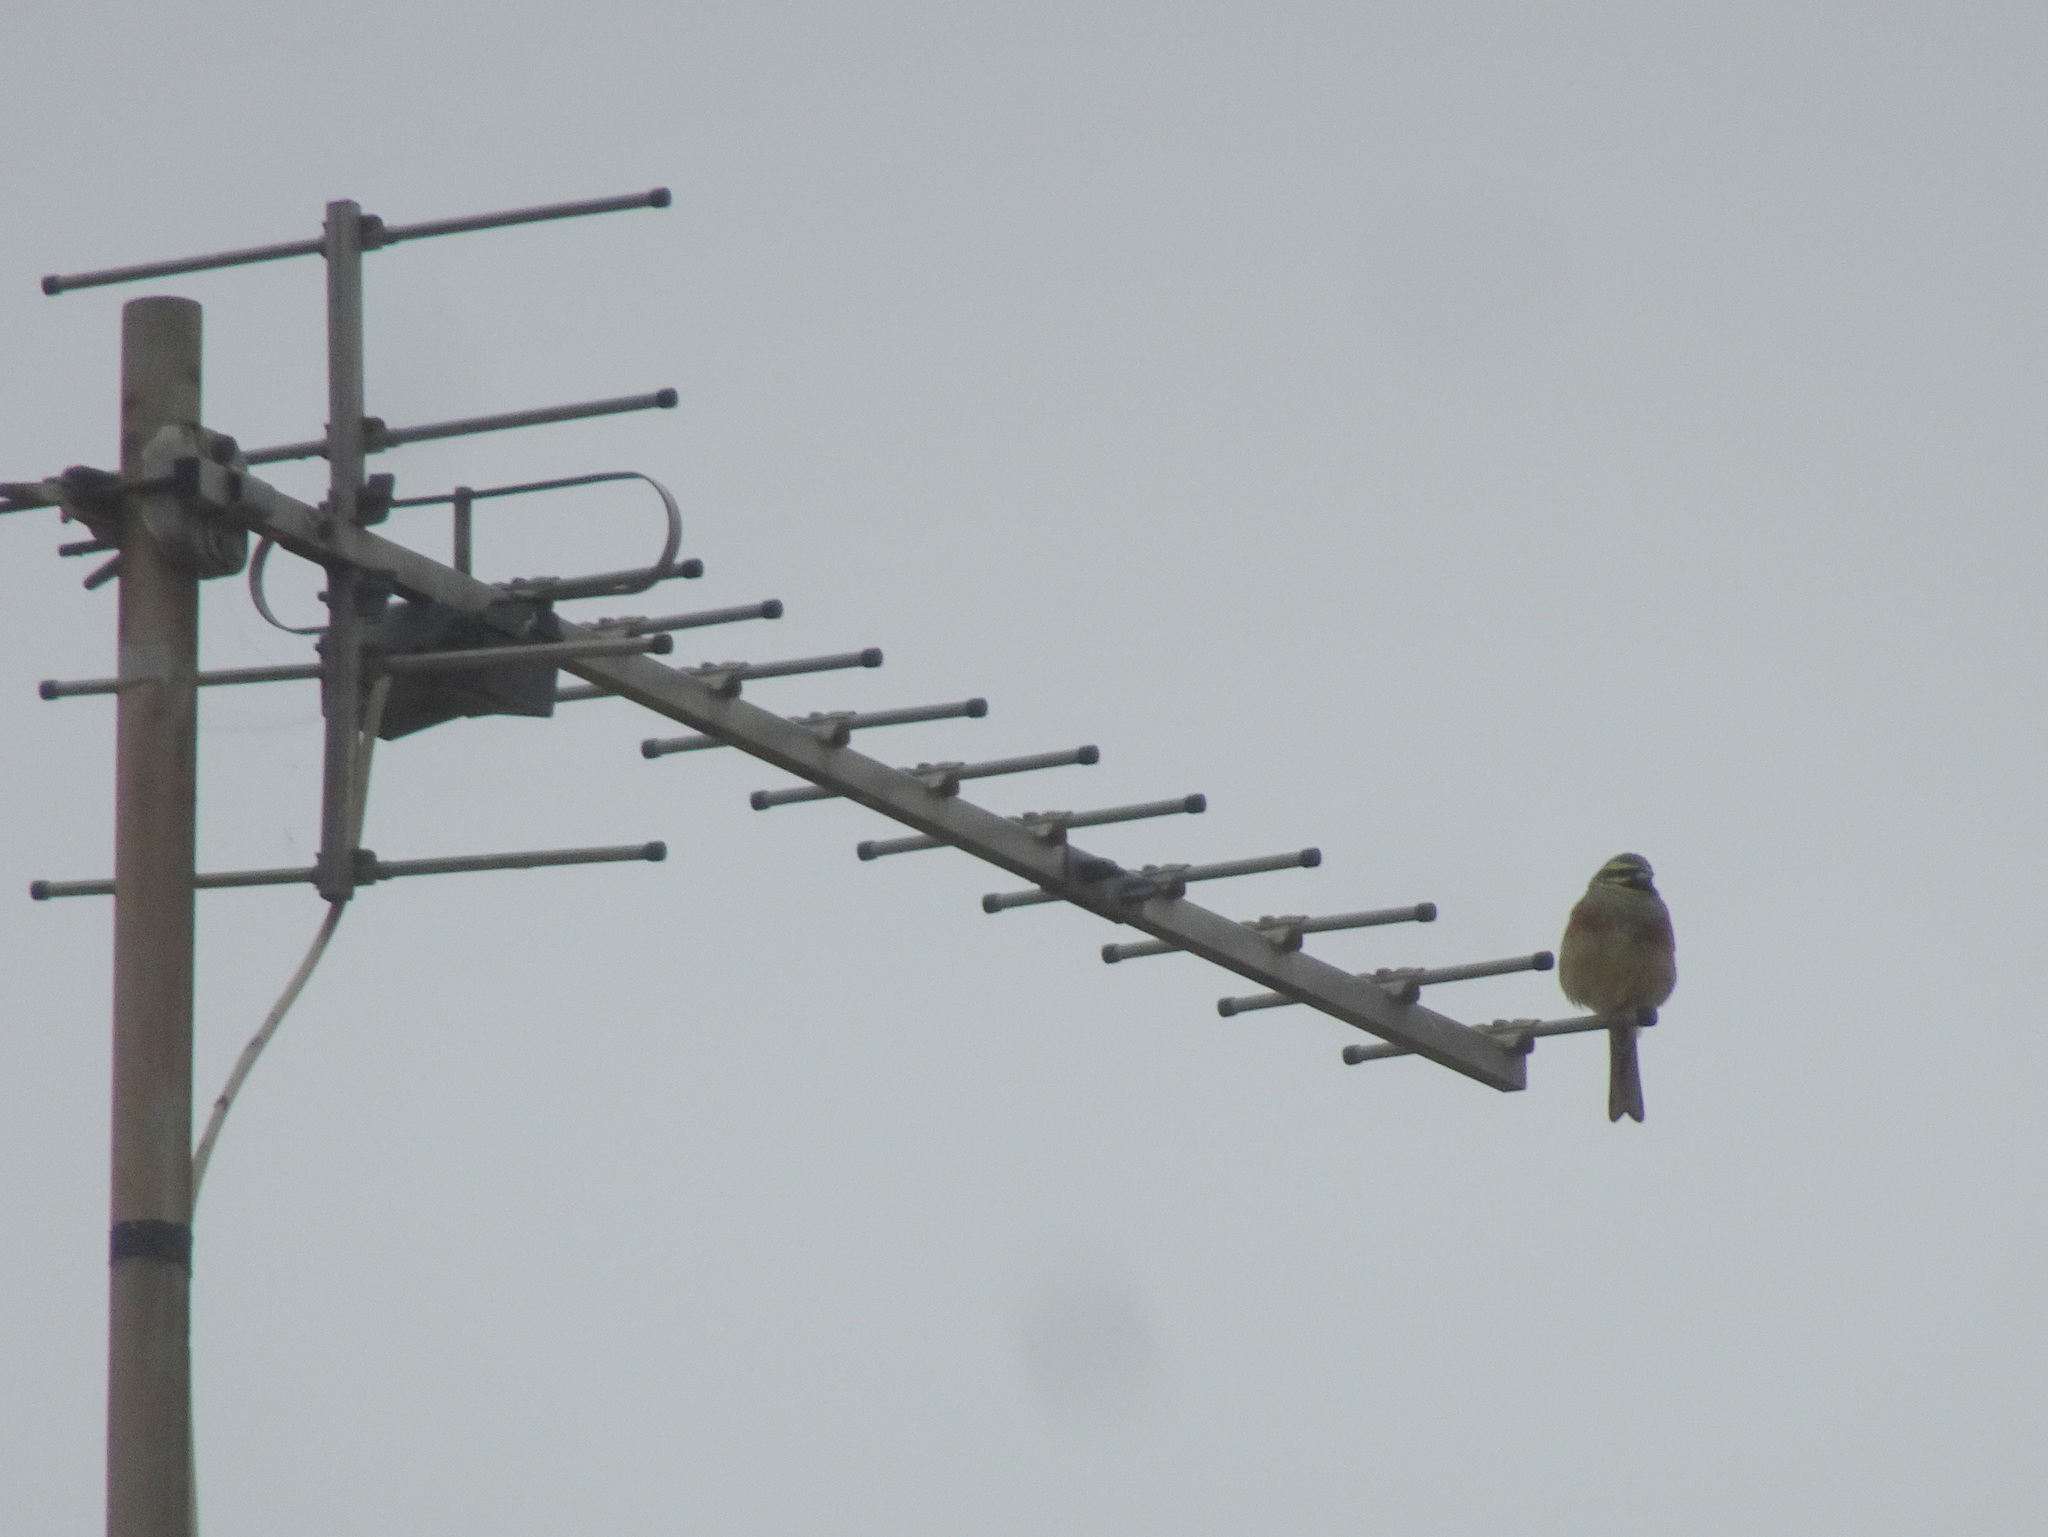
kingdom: Animalia
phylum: Chordata
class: Aves
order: Passeriformes
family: Emberizidae
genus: Emberiza
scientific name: Emberiza cirlus
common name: Cirl bunting
